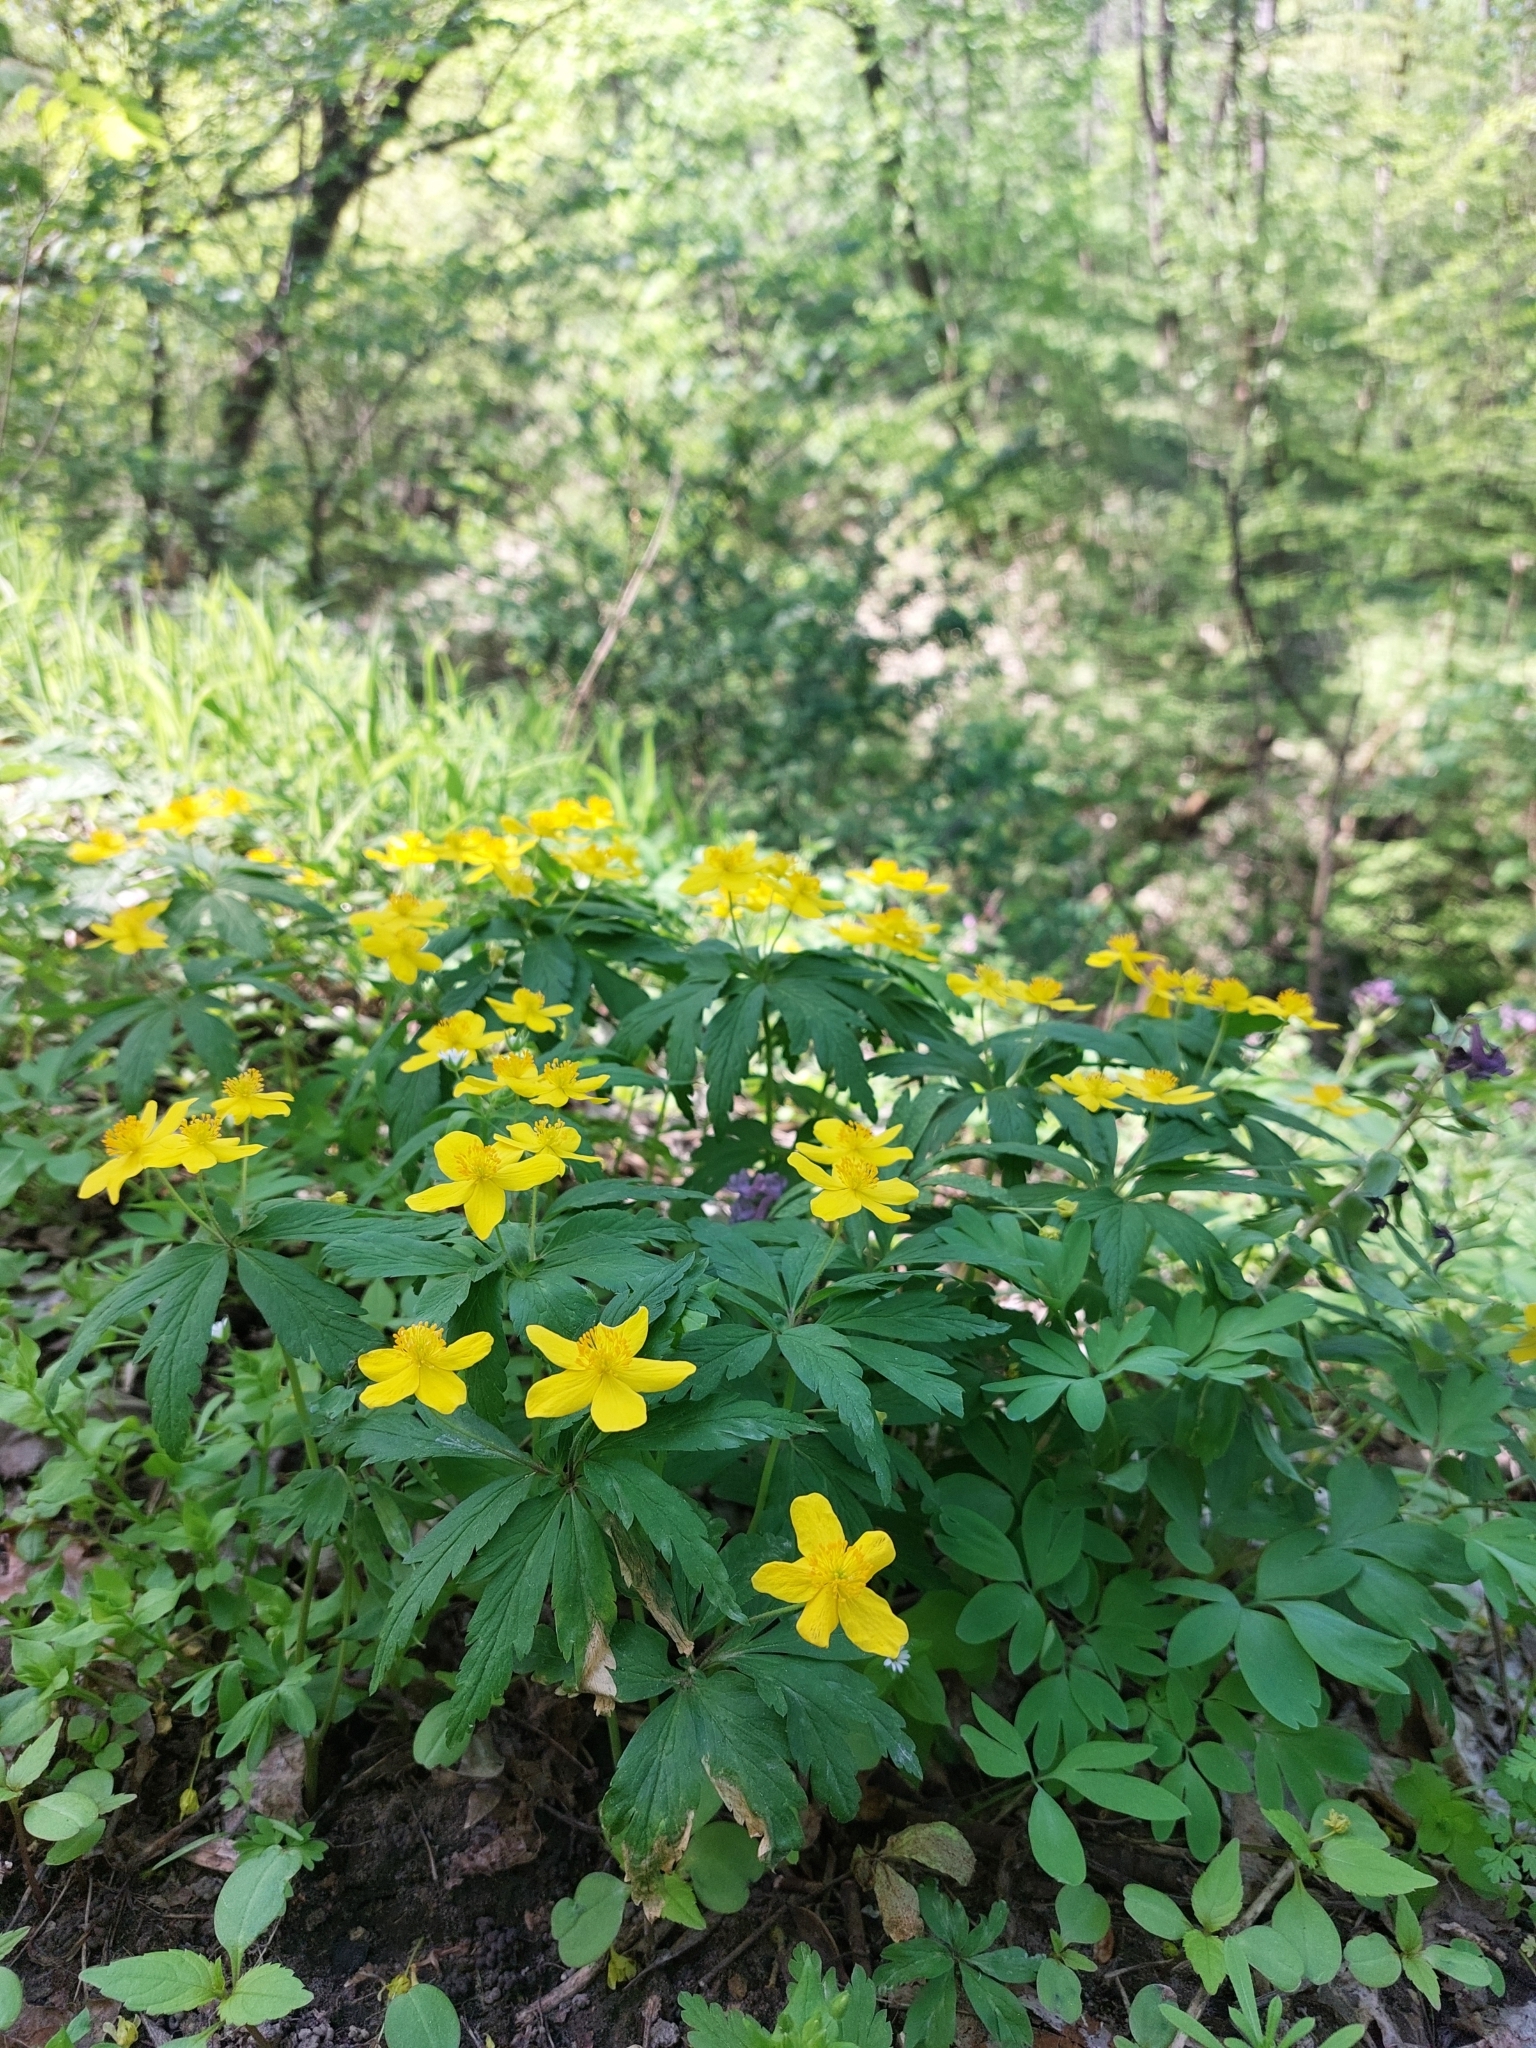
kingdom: Plantae
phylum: Tracheophyta
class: Magnoliopsida
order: Ranunculales
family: Ranunculaceae
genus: Anemone
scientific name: Anemone ranunculoides
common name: Yellow anemone
